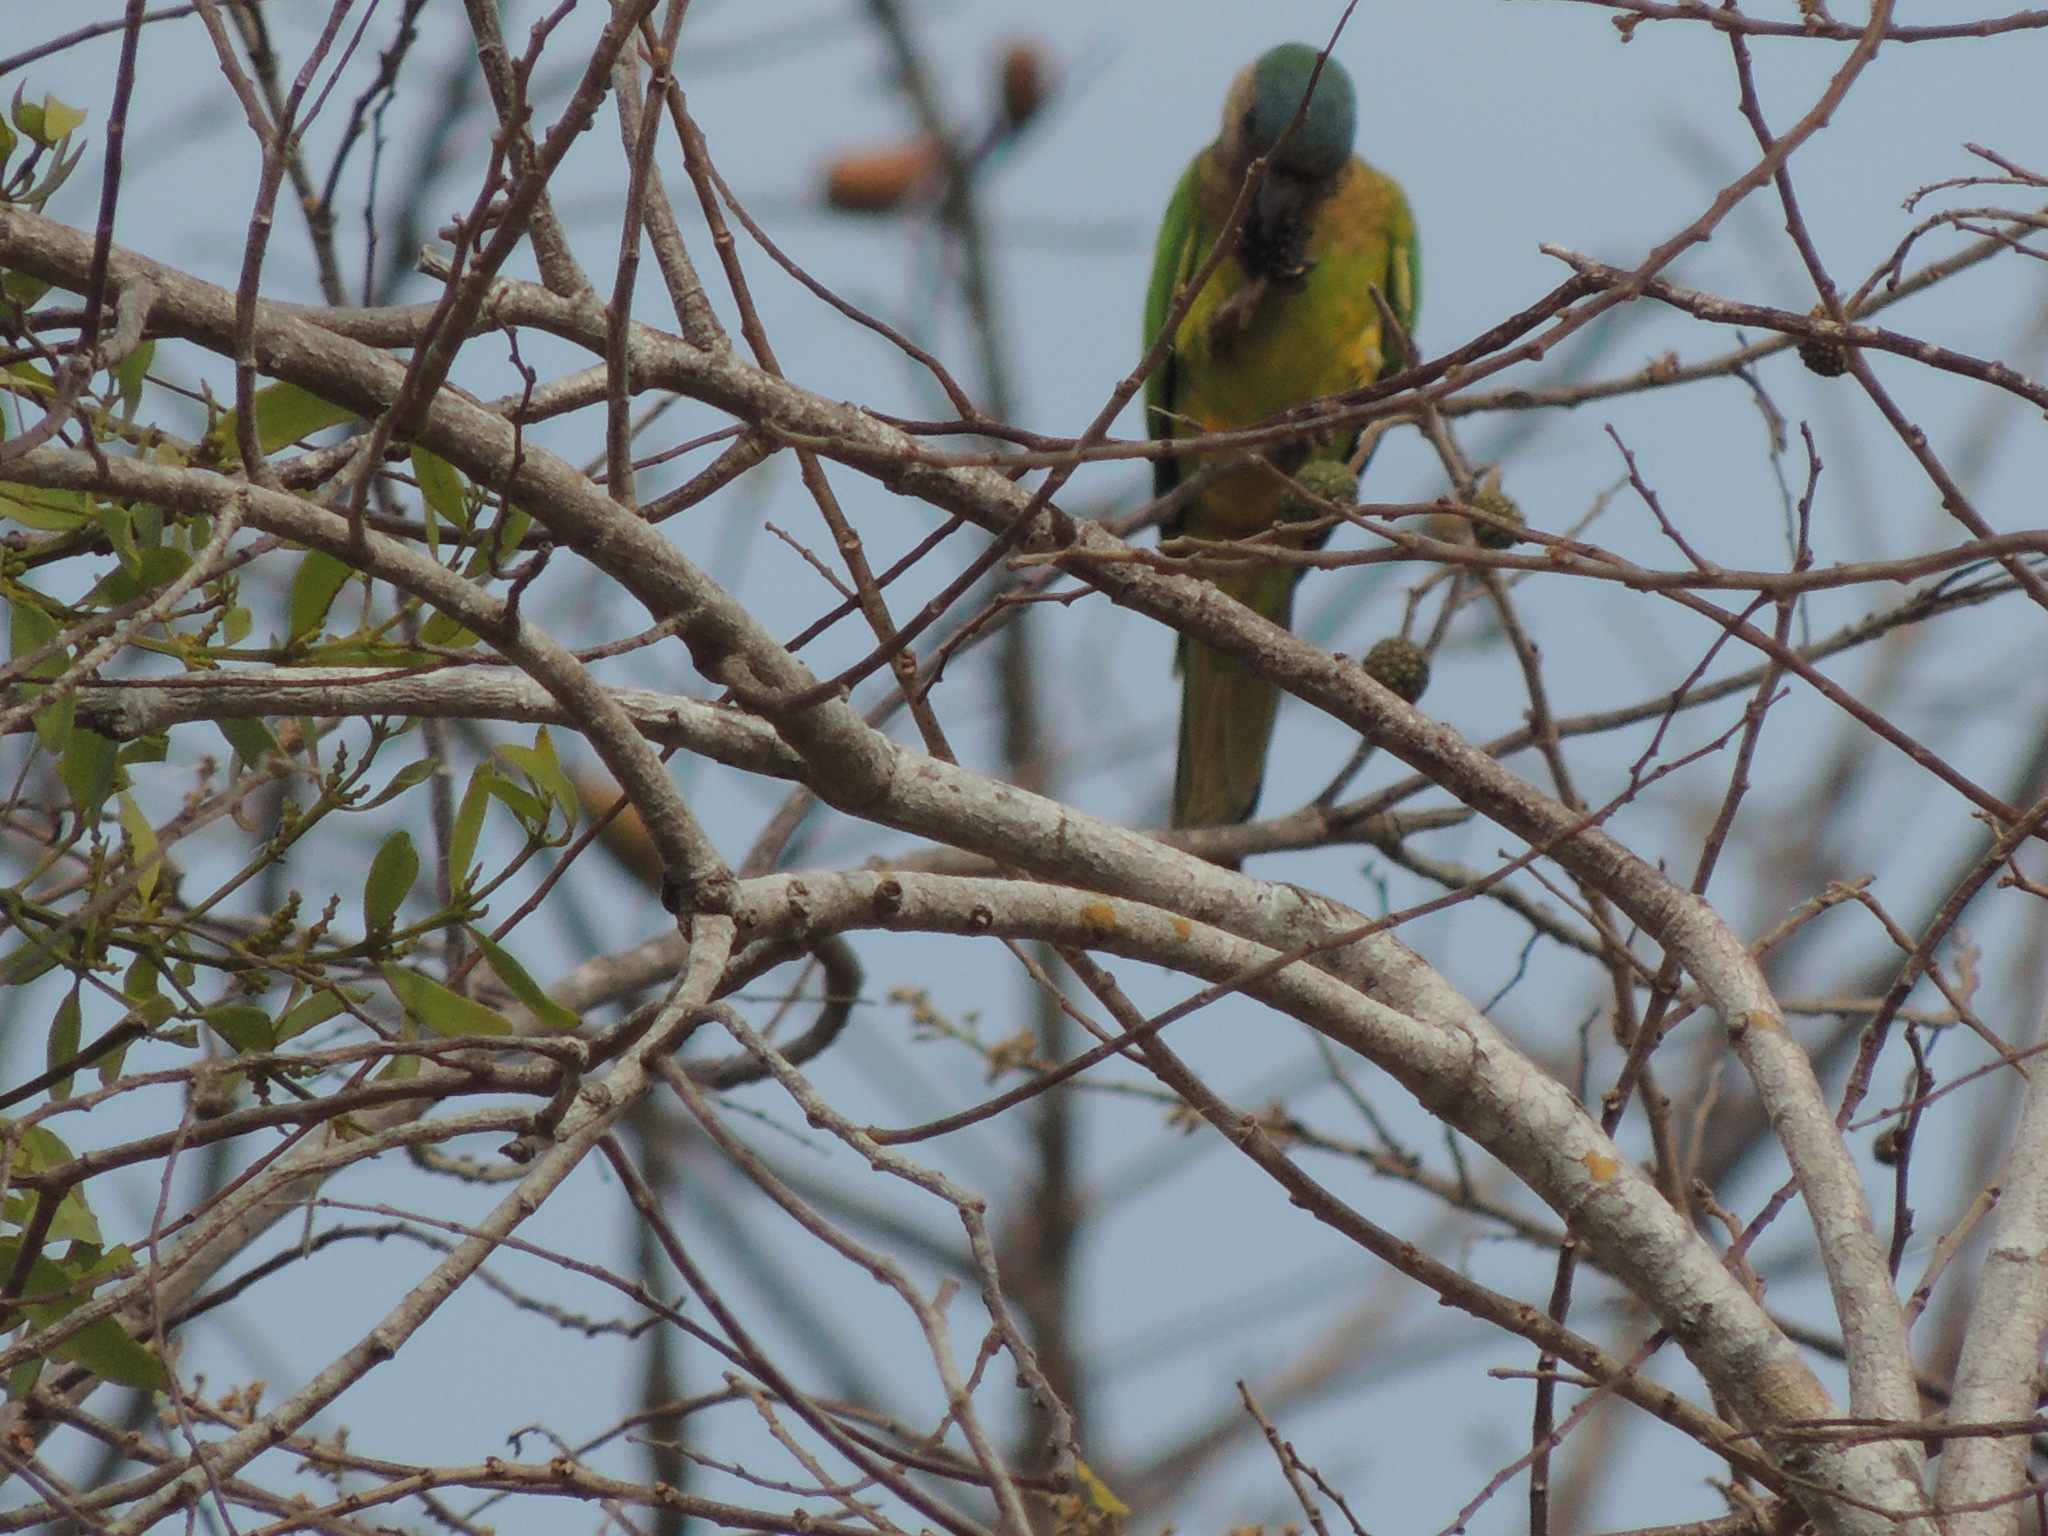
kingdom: Animalia
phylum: Chordata
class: Aves
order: Psittaciformes
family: Psittacidae
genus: Aratinga
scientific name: Aratinga pertinax
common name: Brown-throated parakeet
